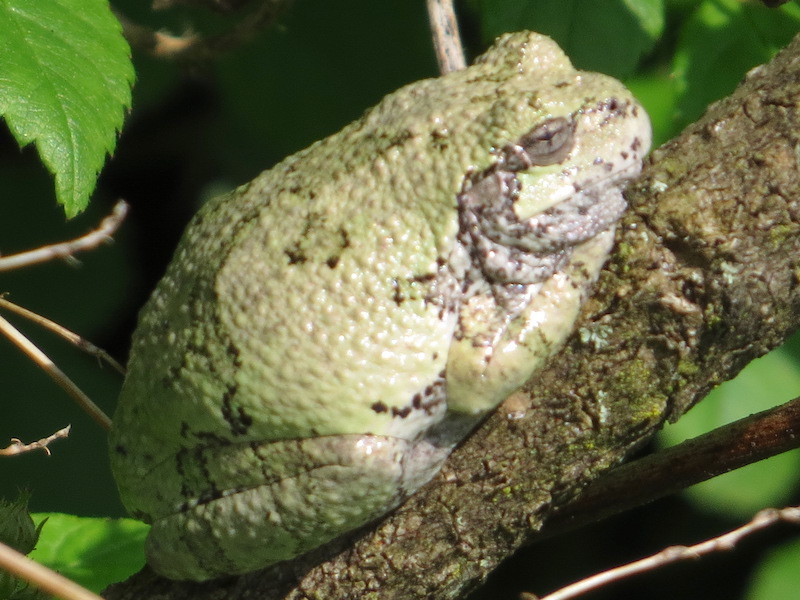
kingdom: Animalia
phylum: Chordata
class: Amphibia
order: Anura
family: Hylidae
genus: Dryophytes
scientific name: Dryophytes versicolor
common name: Gray treefrog
